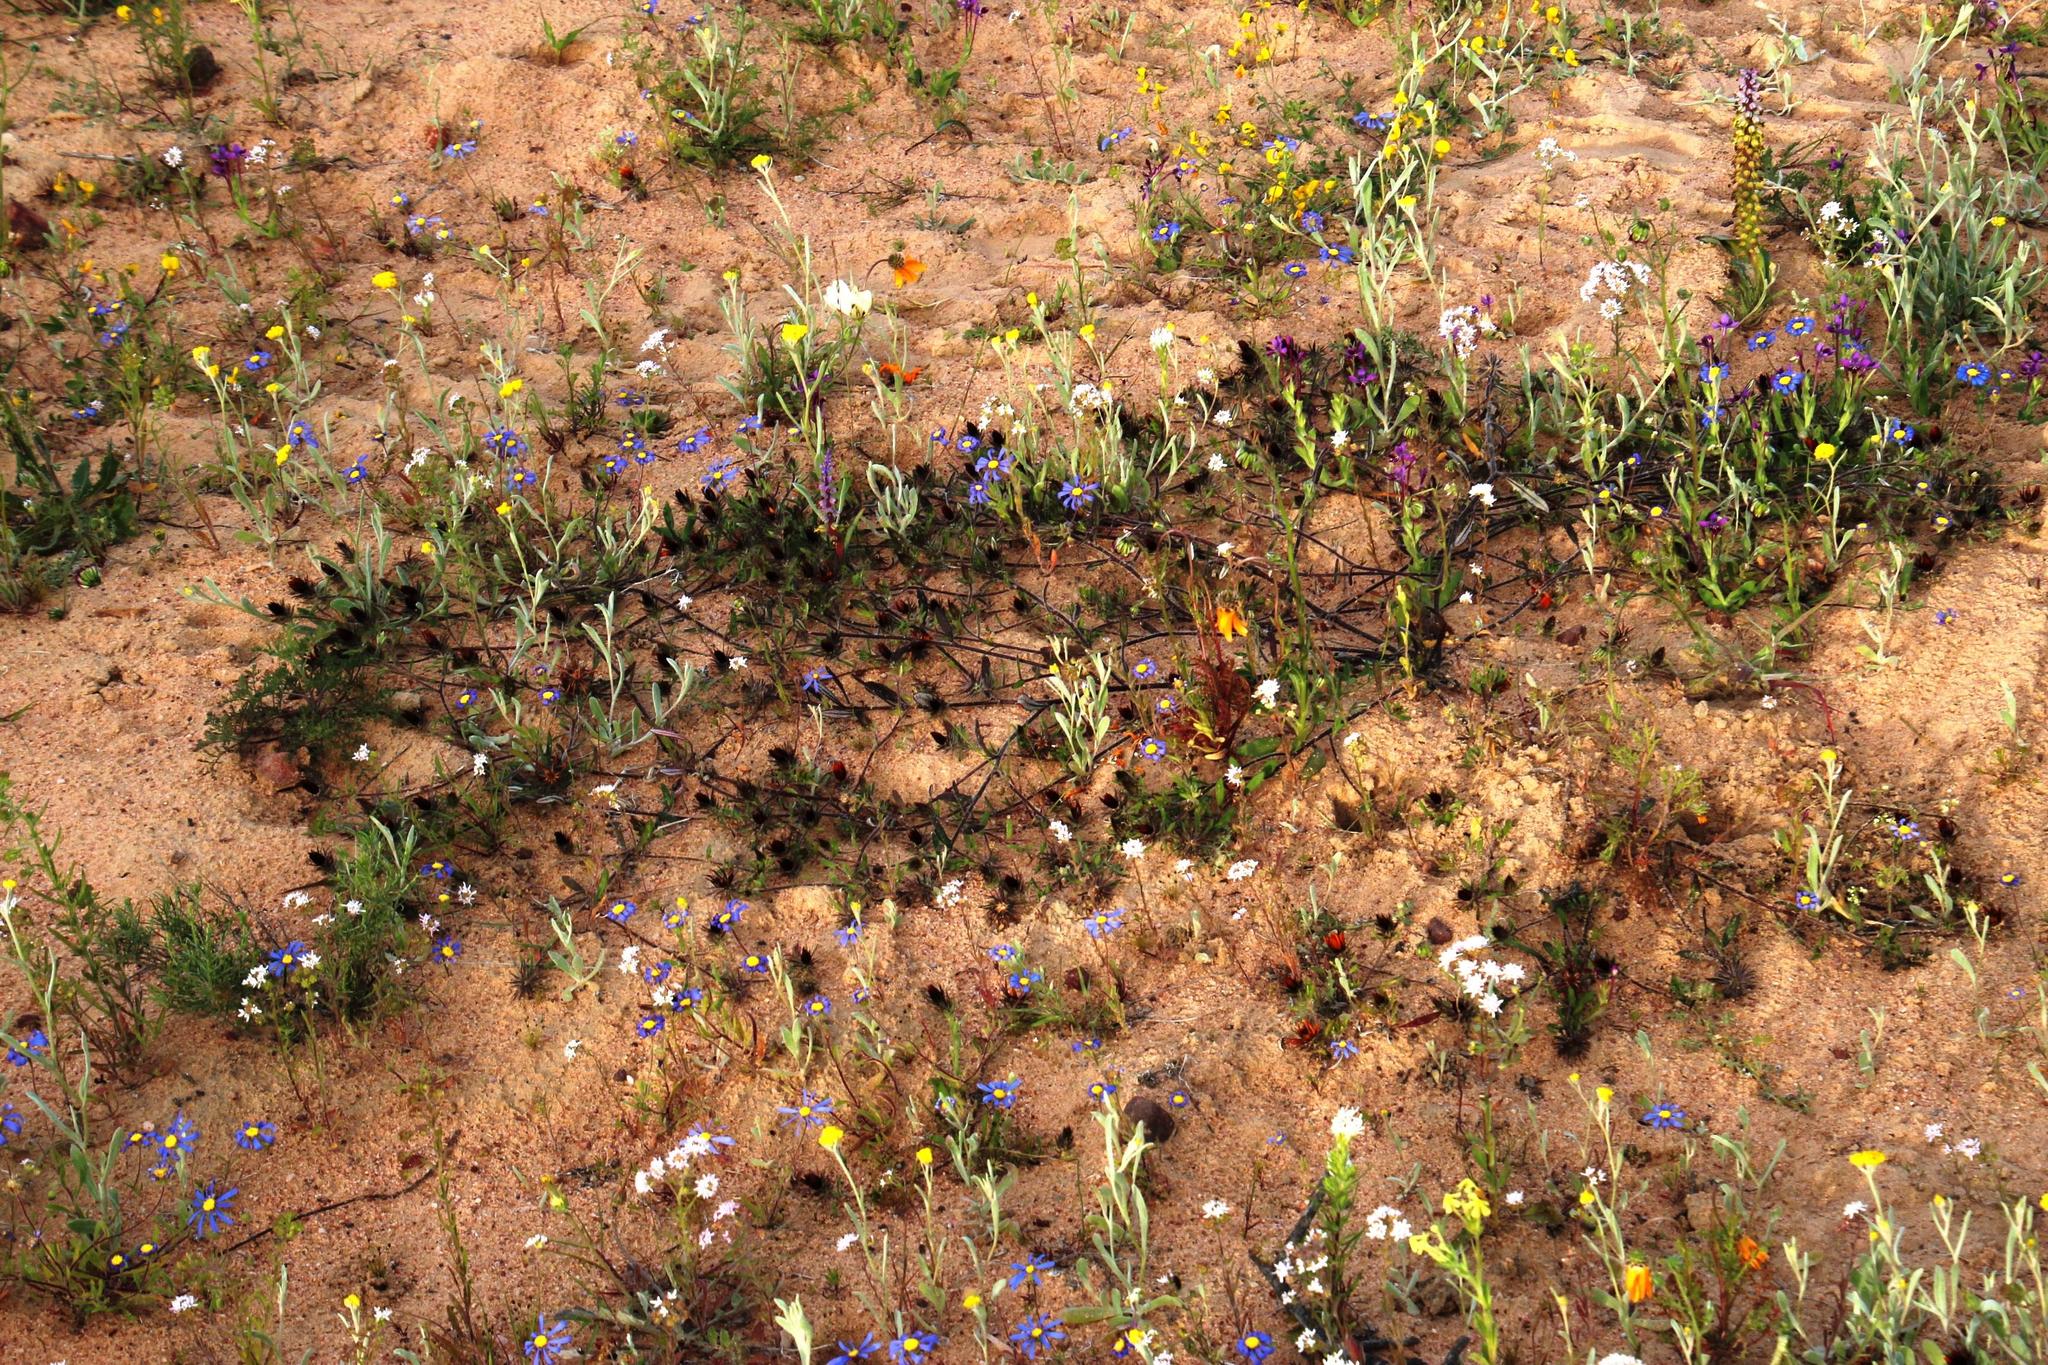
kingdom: Plantae
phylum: Tracheophyta
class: Magnoliopsida
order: Asterales
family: Asteraceae
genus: Gorteria
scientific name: Gorteria diffusa
